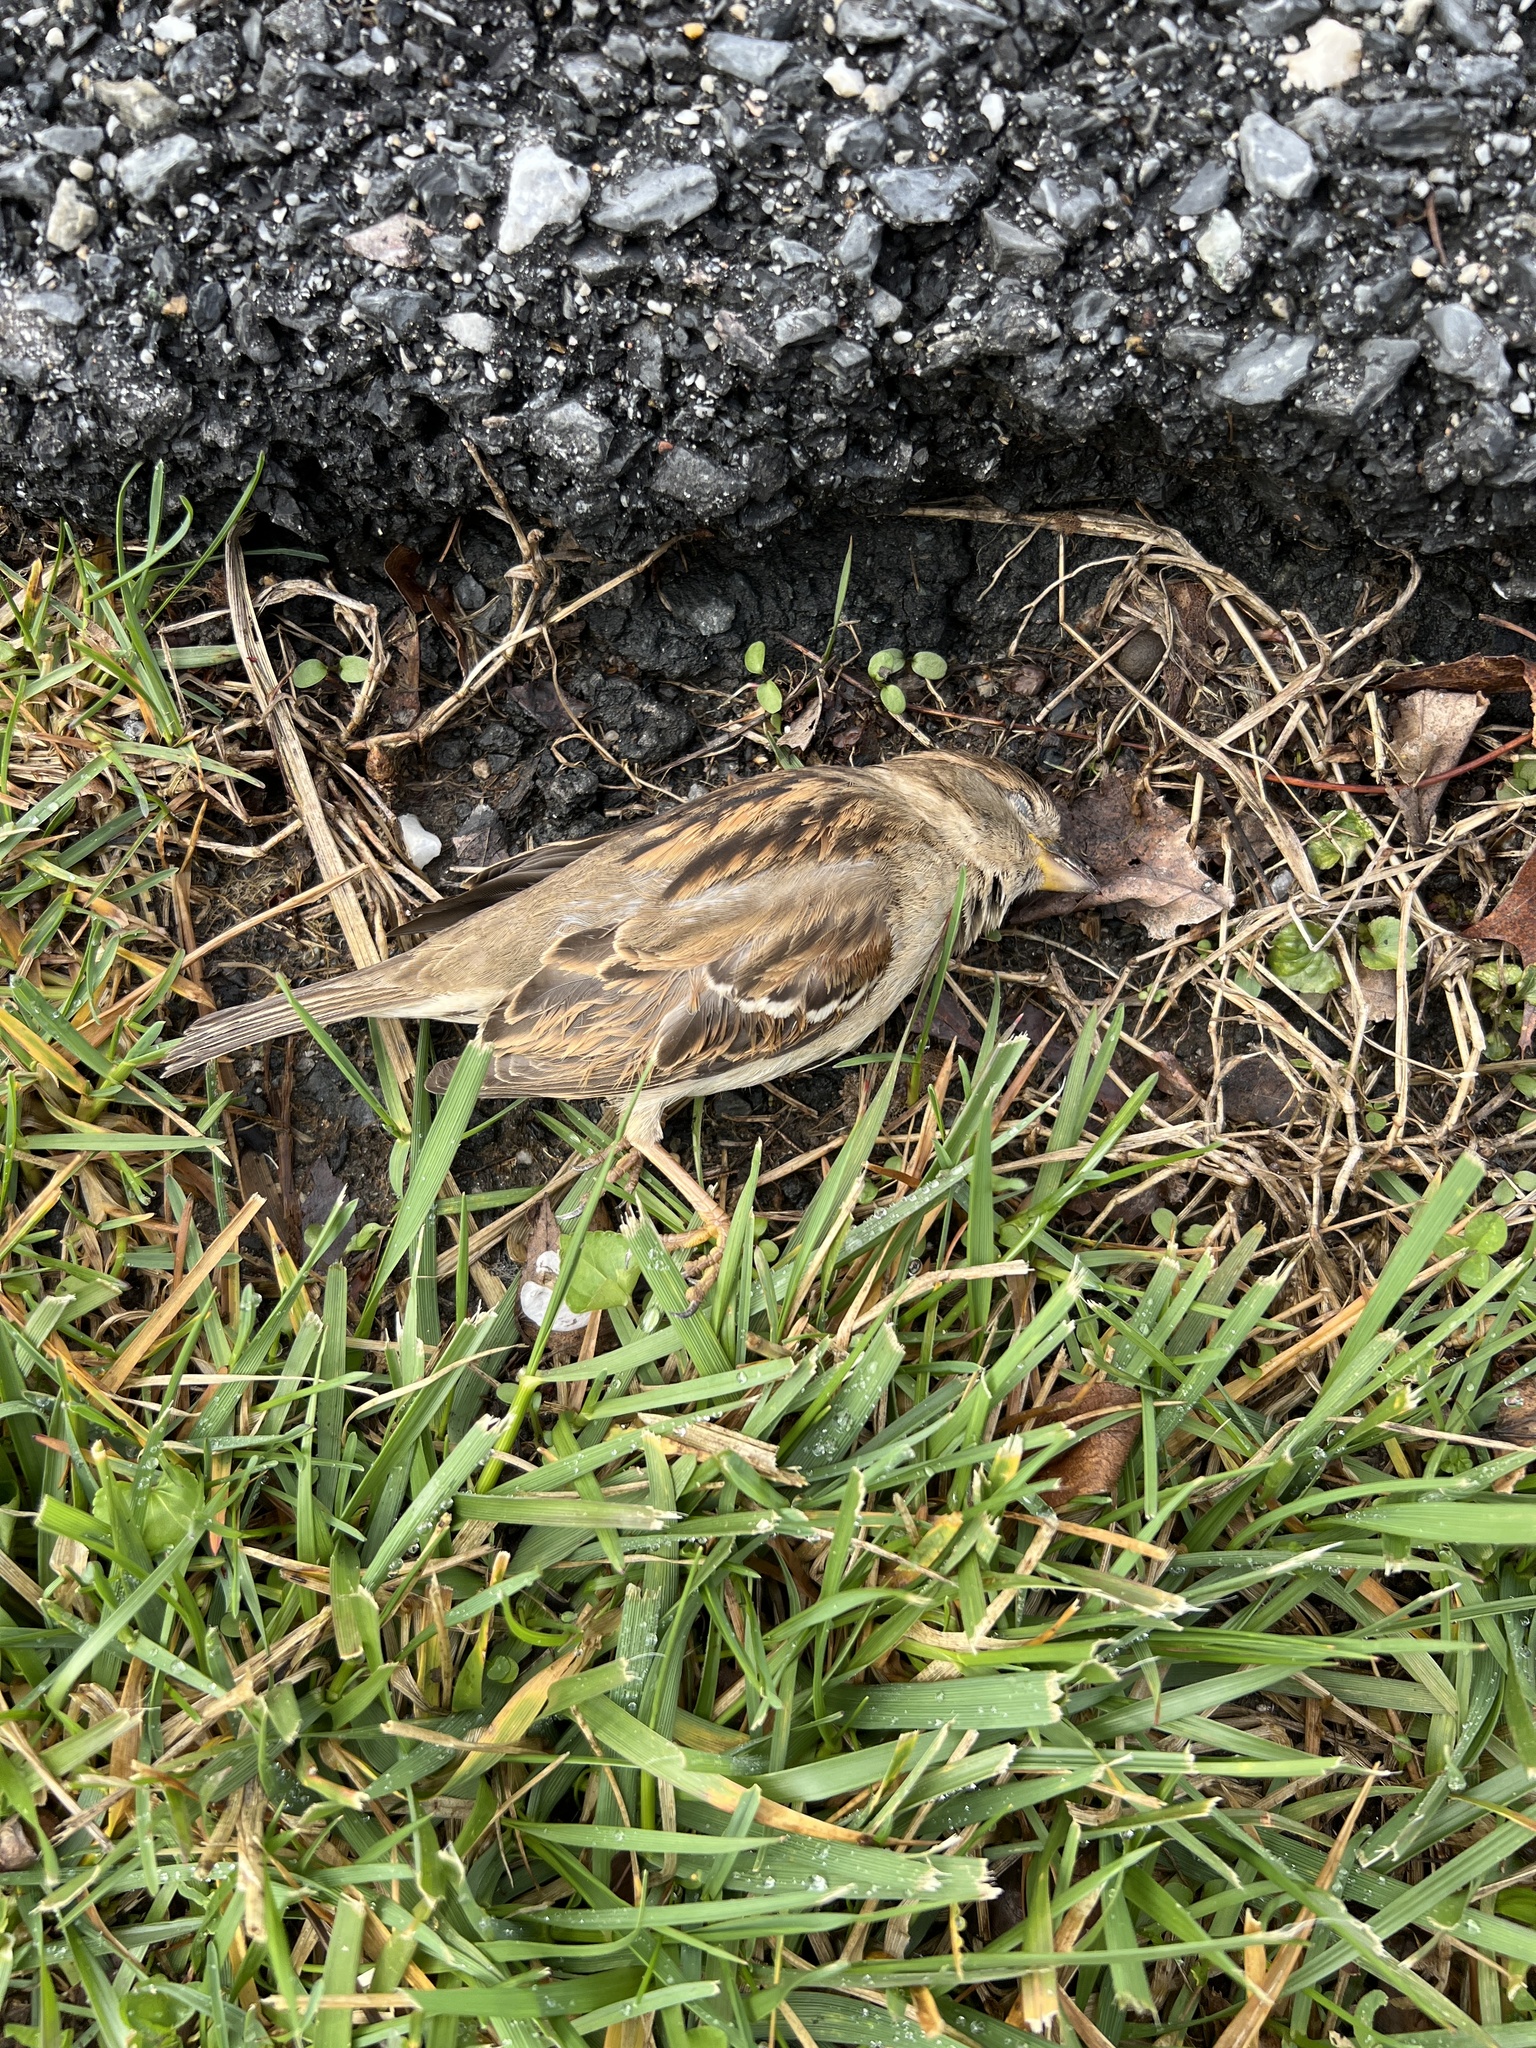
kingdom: Animalia
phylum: Chordata
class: Aves
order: Passeriformes
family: Passeridae
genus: Passer
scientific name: Passer domesticus
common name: House sparrow
